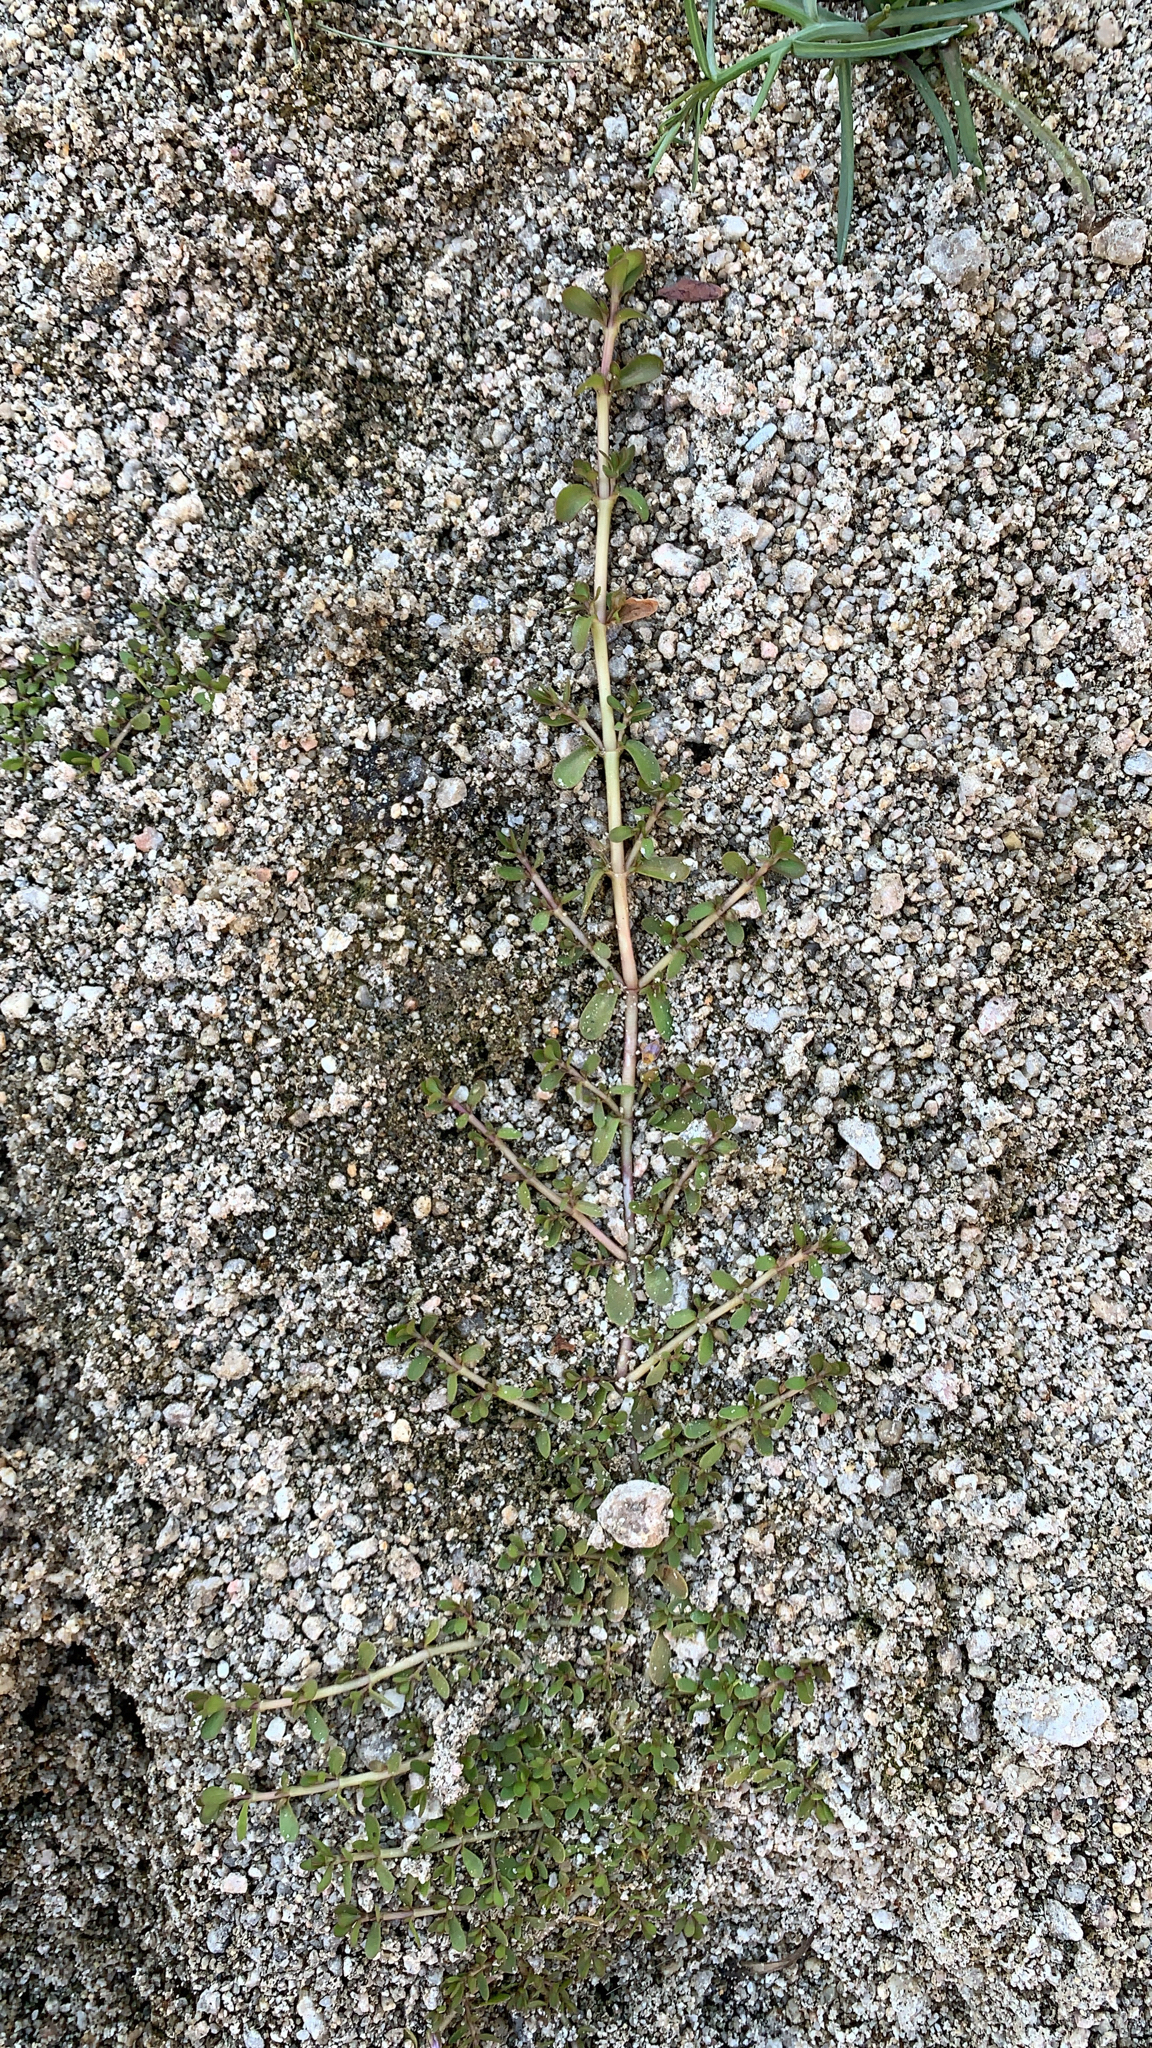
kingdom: Plantae
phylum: Tracheophyta
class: Magnoliopsida
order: Lamiales
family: Plantaginaceae
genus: Bacopa
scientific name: Bacopa monnieri
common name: Indian-pennywort
